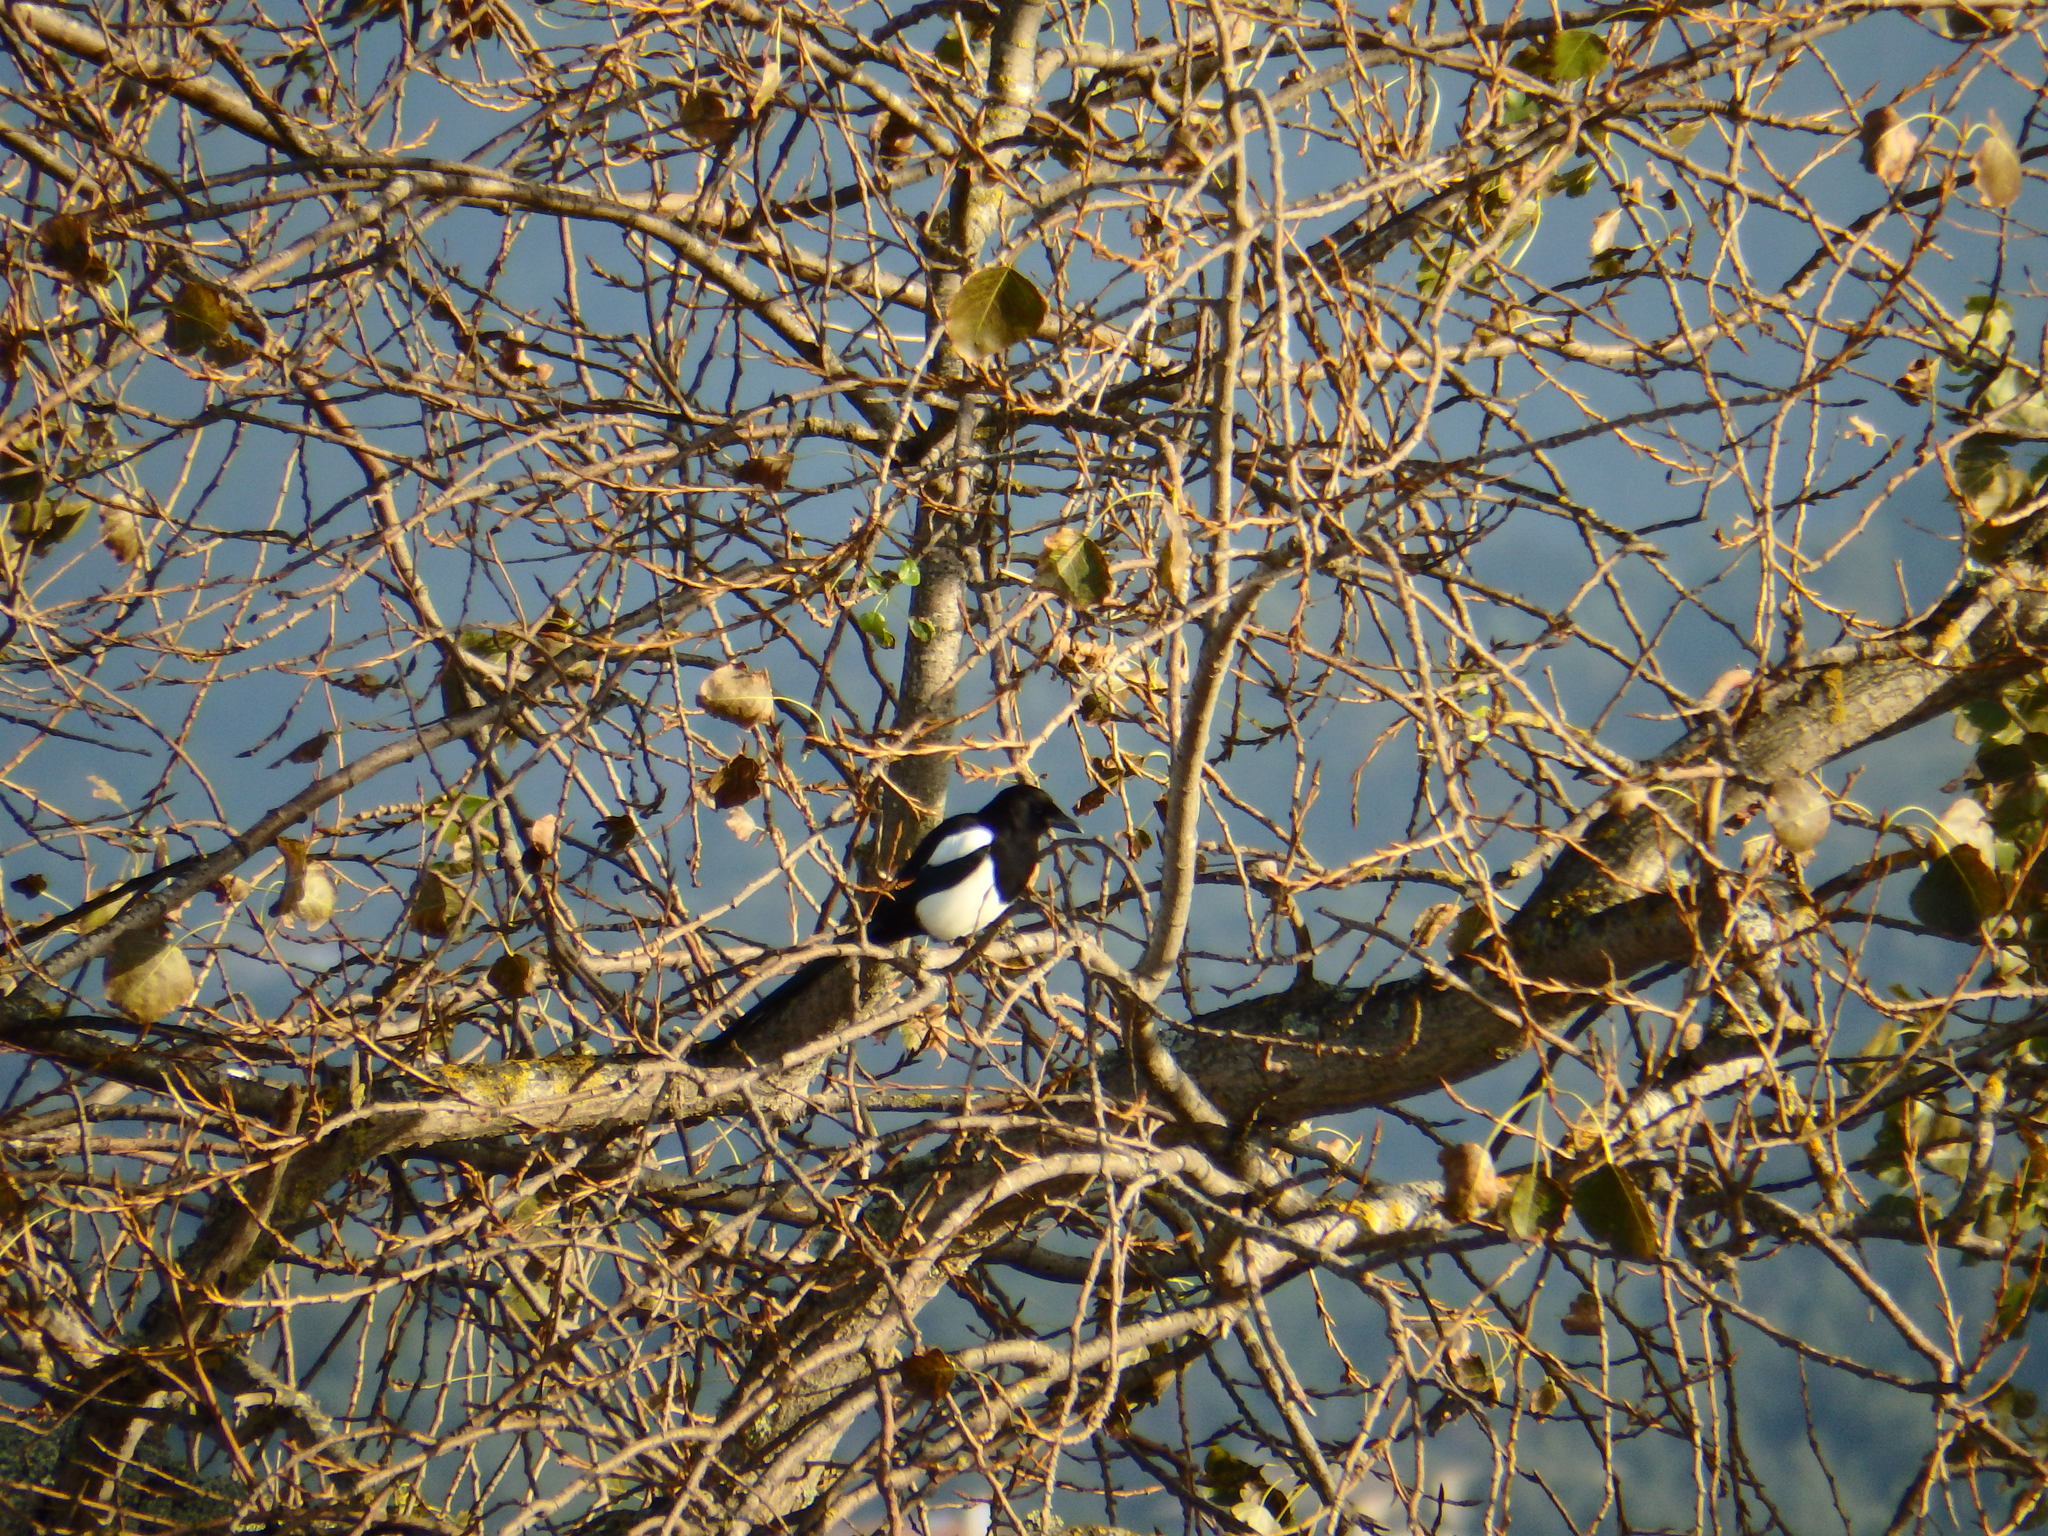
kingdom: Animalia
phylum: Chordata
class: Aves
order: Passeriformes
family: Corvidae
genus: Pica
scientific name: Pica pica
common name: Eurasian magpie
